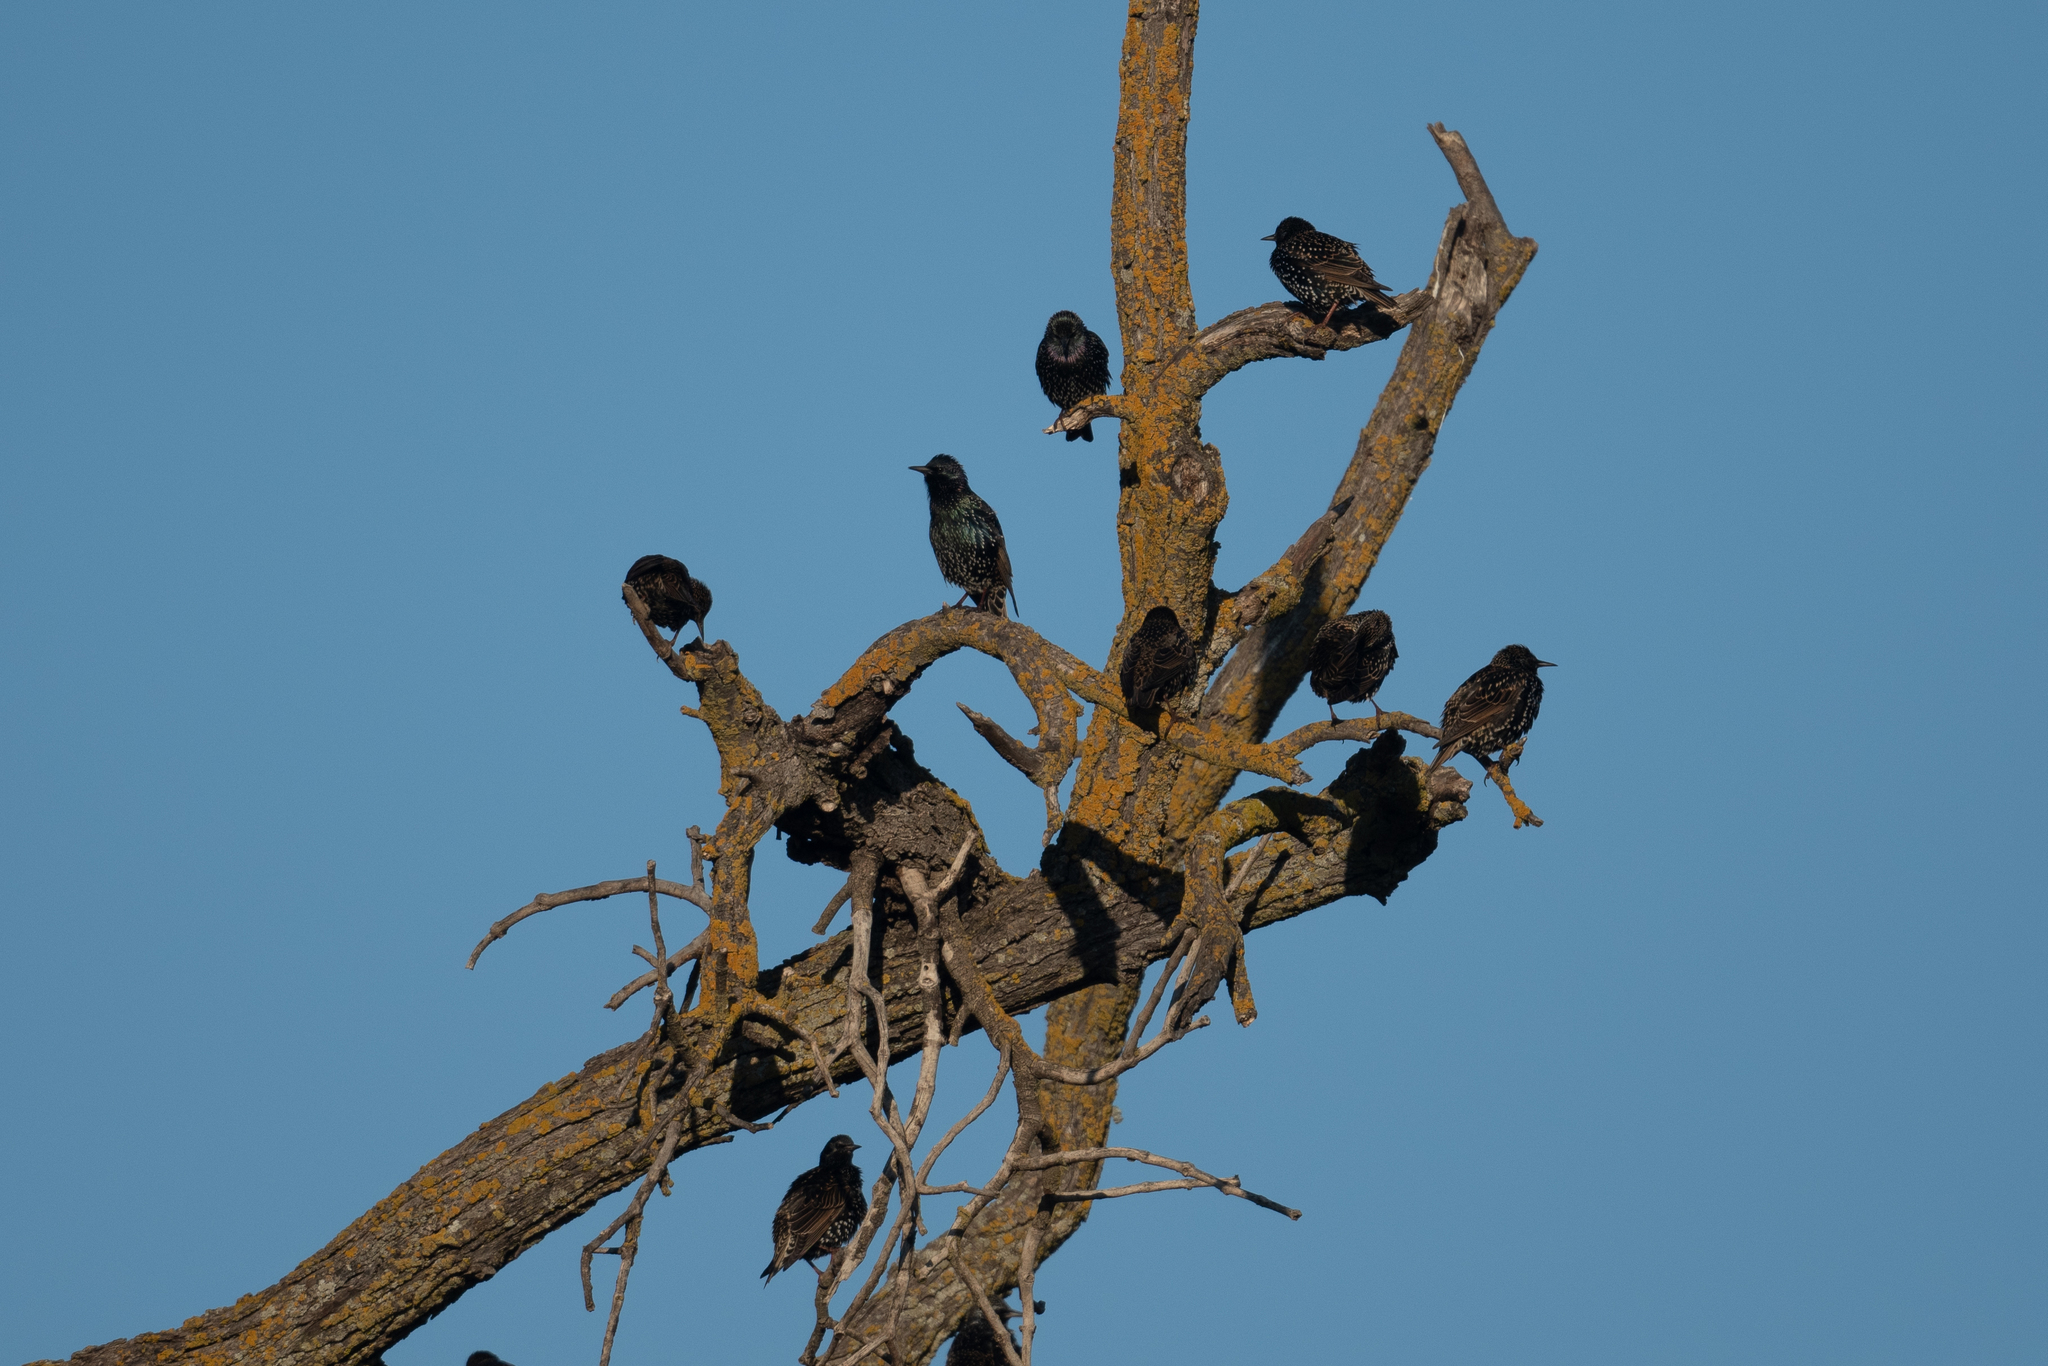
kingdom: Animalia
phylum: Chordata
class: Aves
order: Passeriformes
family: Sturnidae
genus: Sturnus
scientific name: Sturnus vulgaris
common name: Common starling
